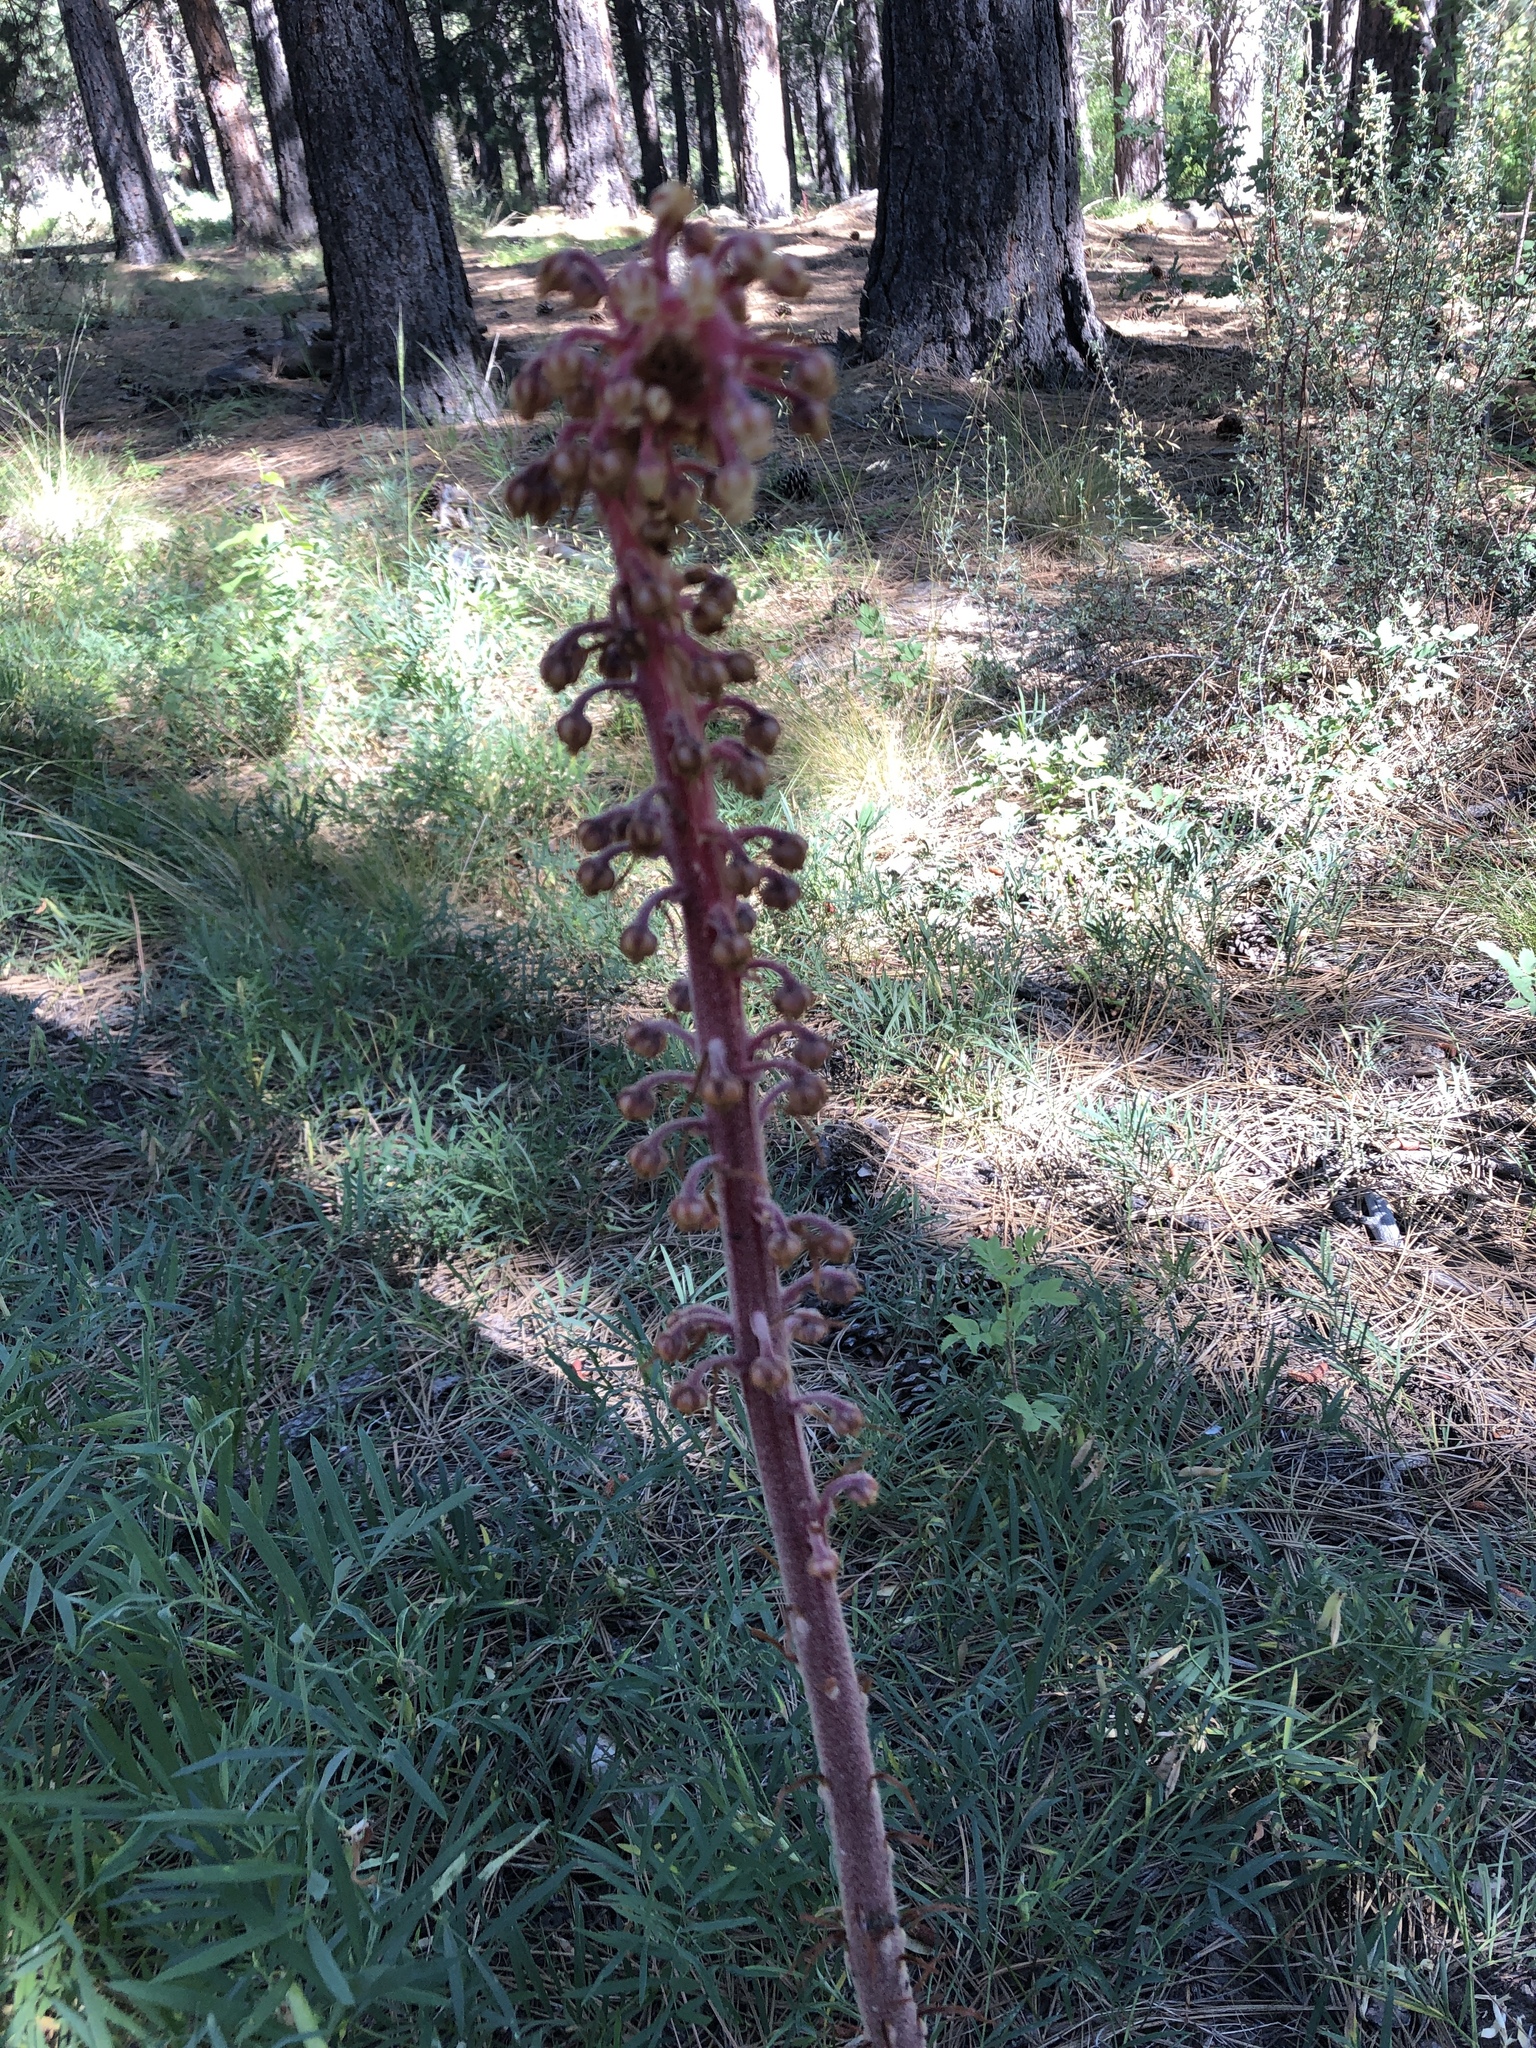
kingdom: Plantae
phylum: Tracheophyta
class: Magnoliopsida
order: Ericales
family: Ericaceae
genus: Pterospora
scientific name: Pterospora andromedea
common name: Giant bird's-nest
